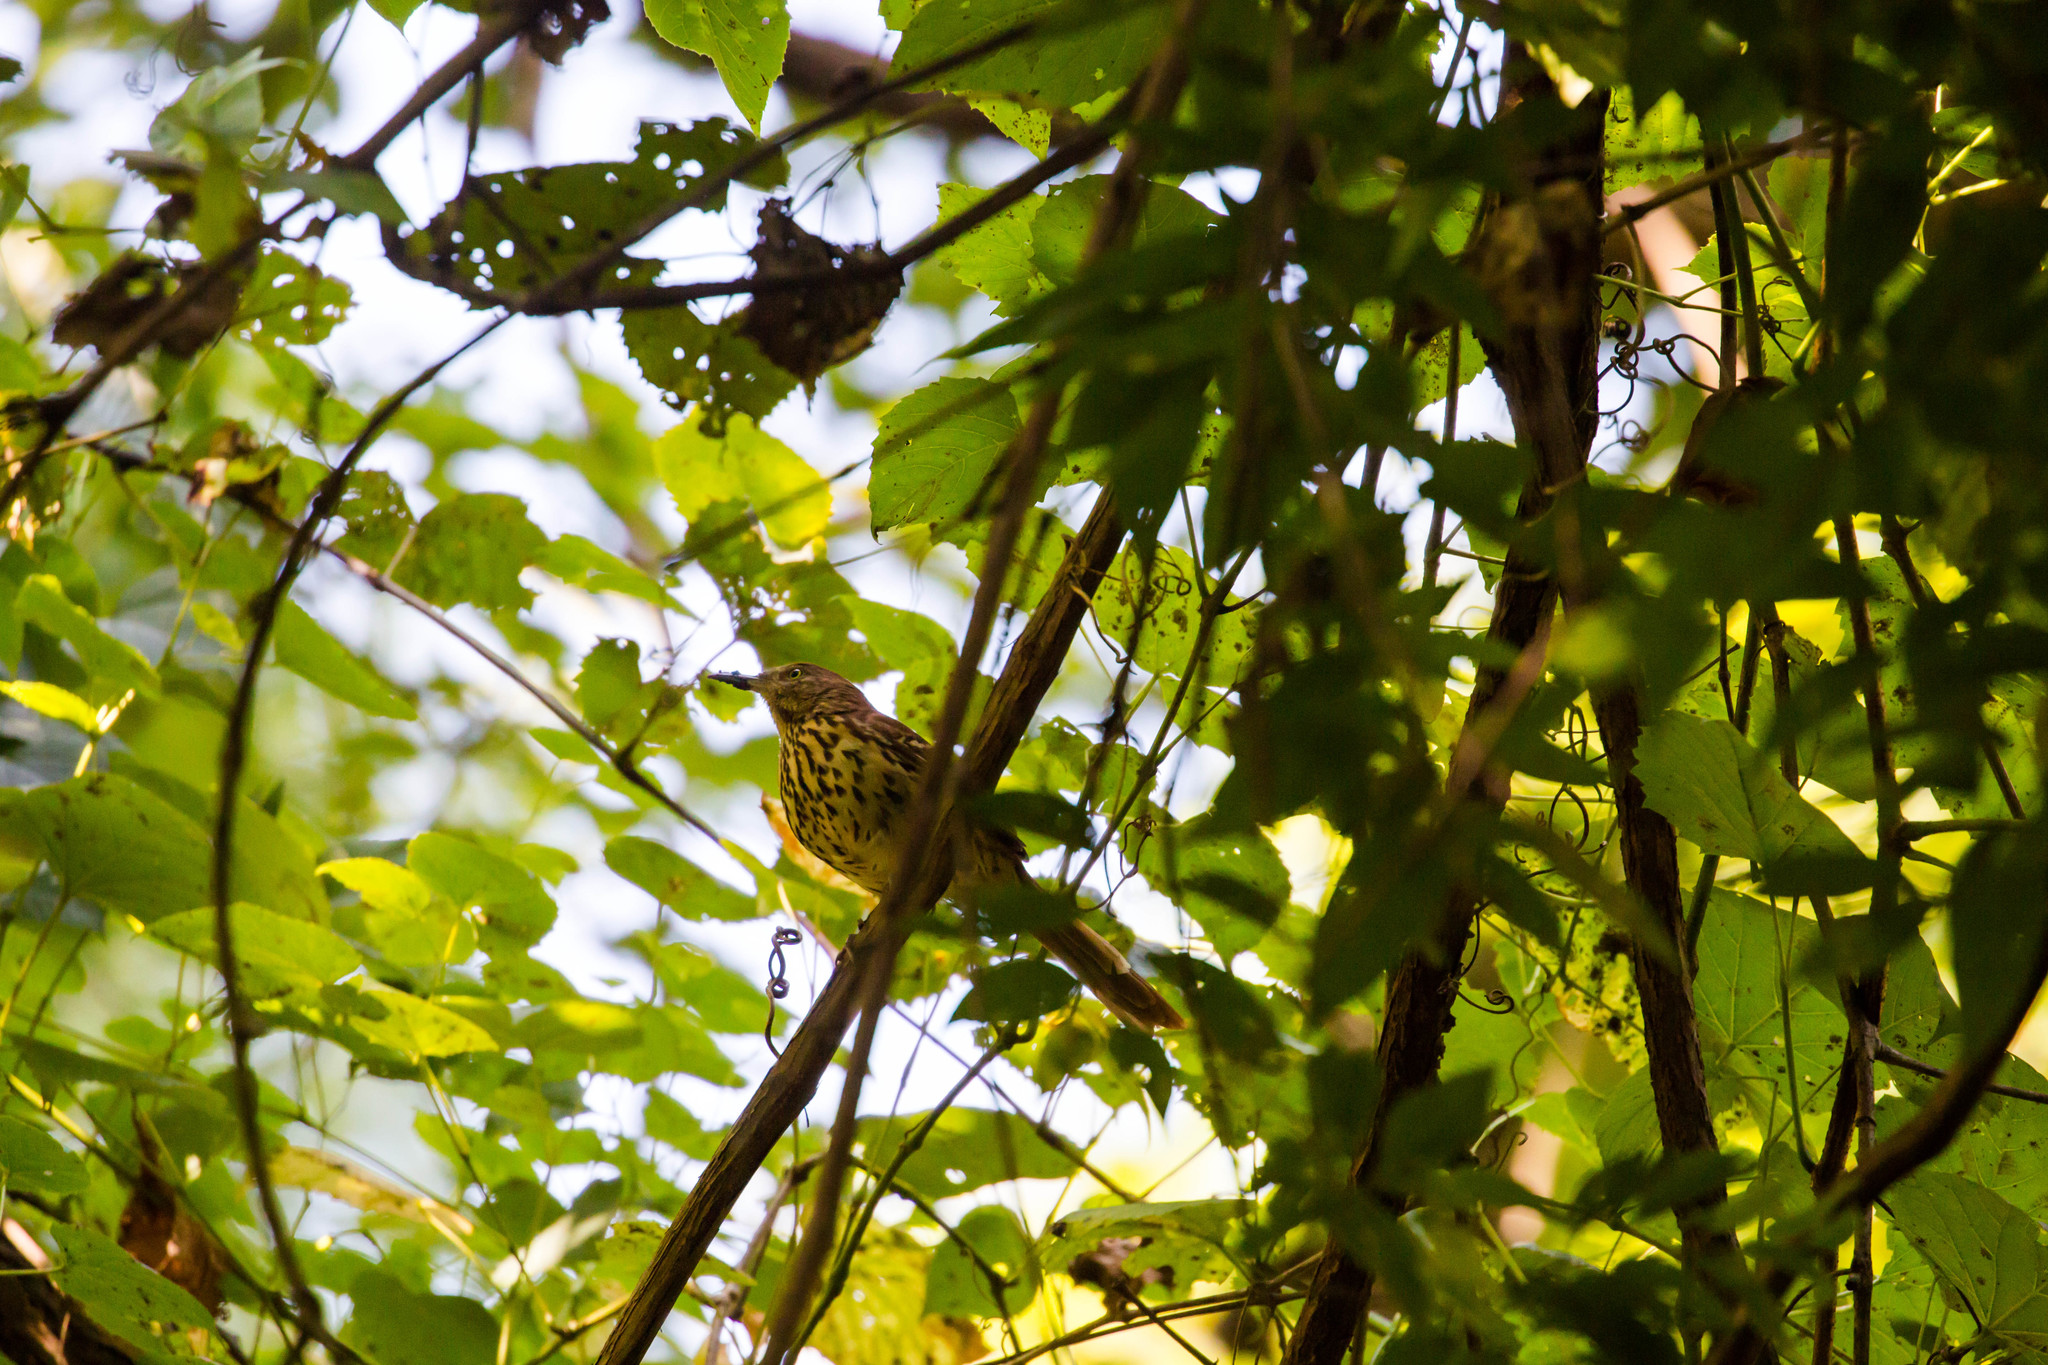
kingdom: Animalia
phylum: Chordata
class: Aves
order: Passeriformes
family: Mimidae
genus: Toxostoma
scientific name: Toxostoma rufum
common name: Brown thrasher
